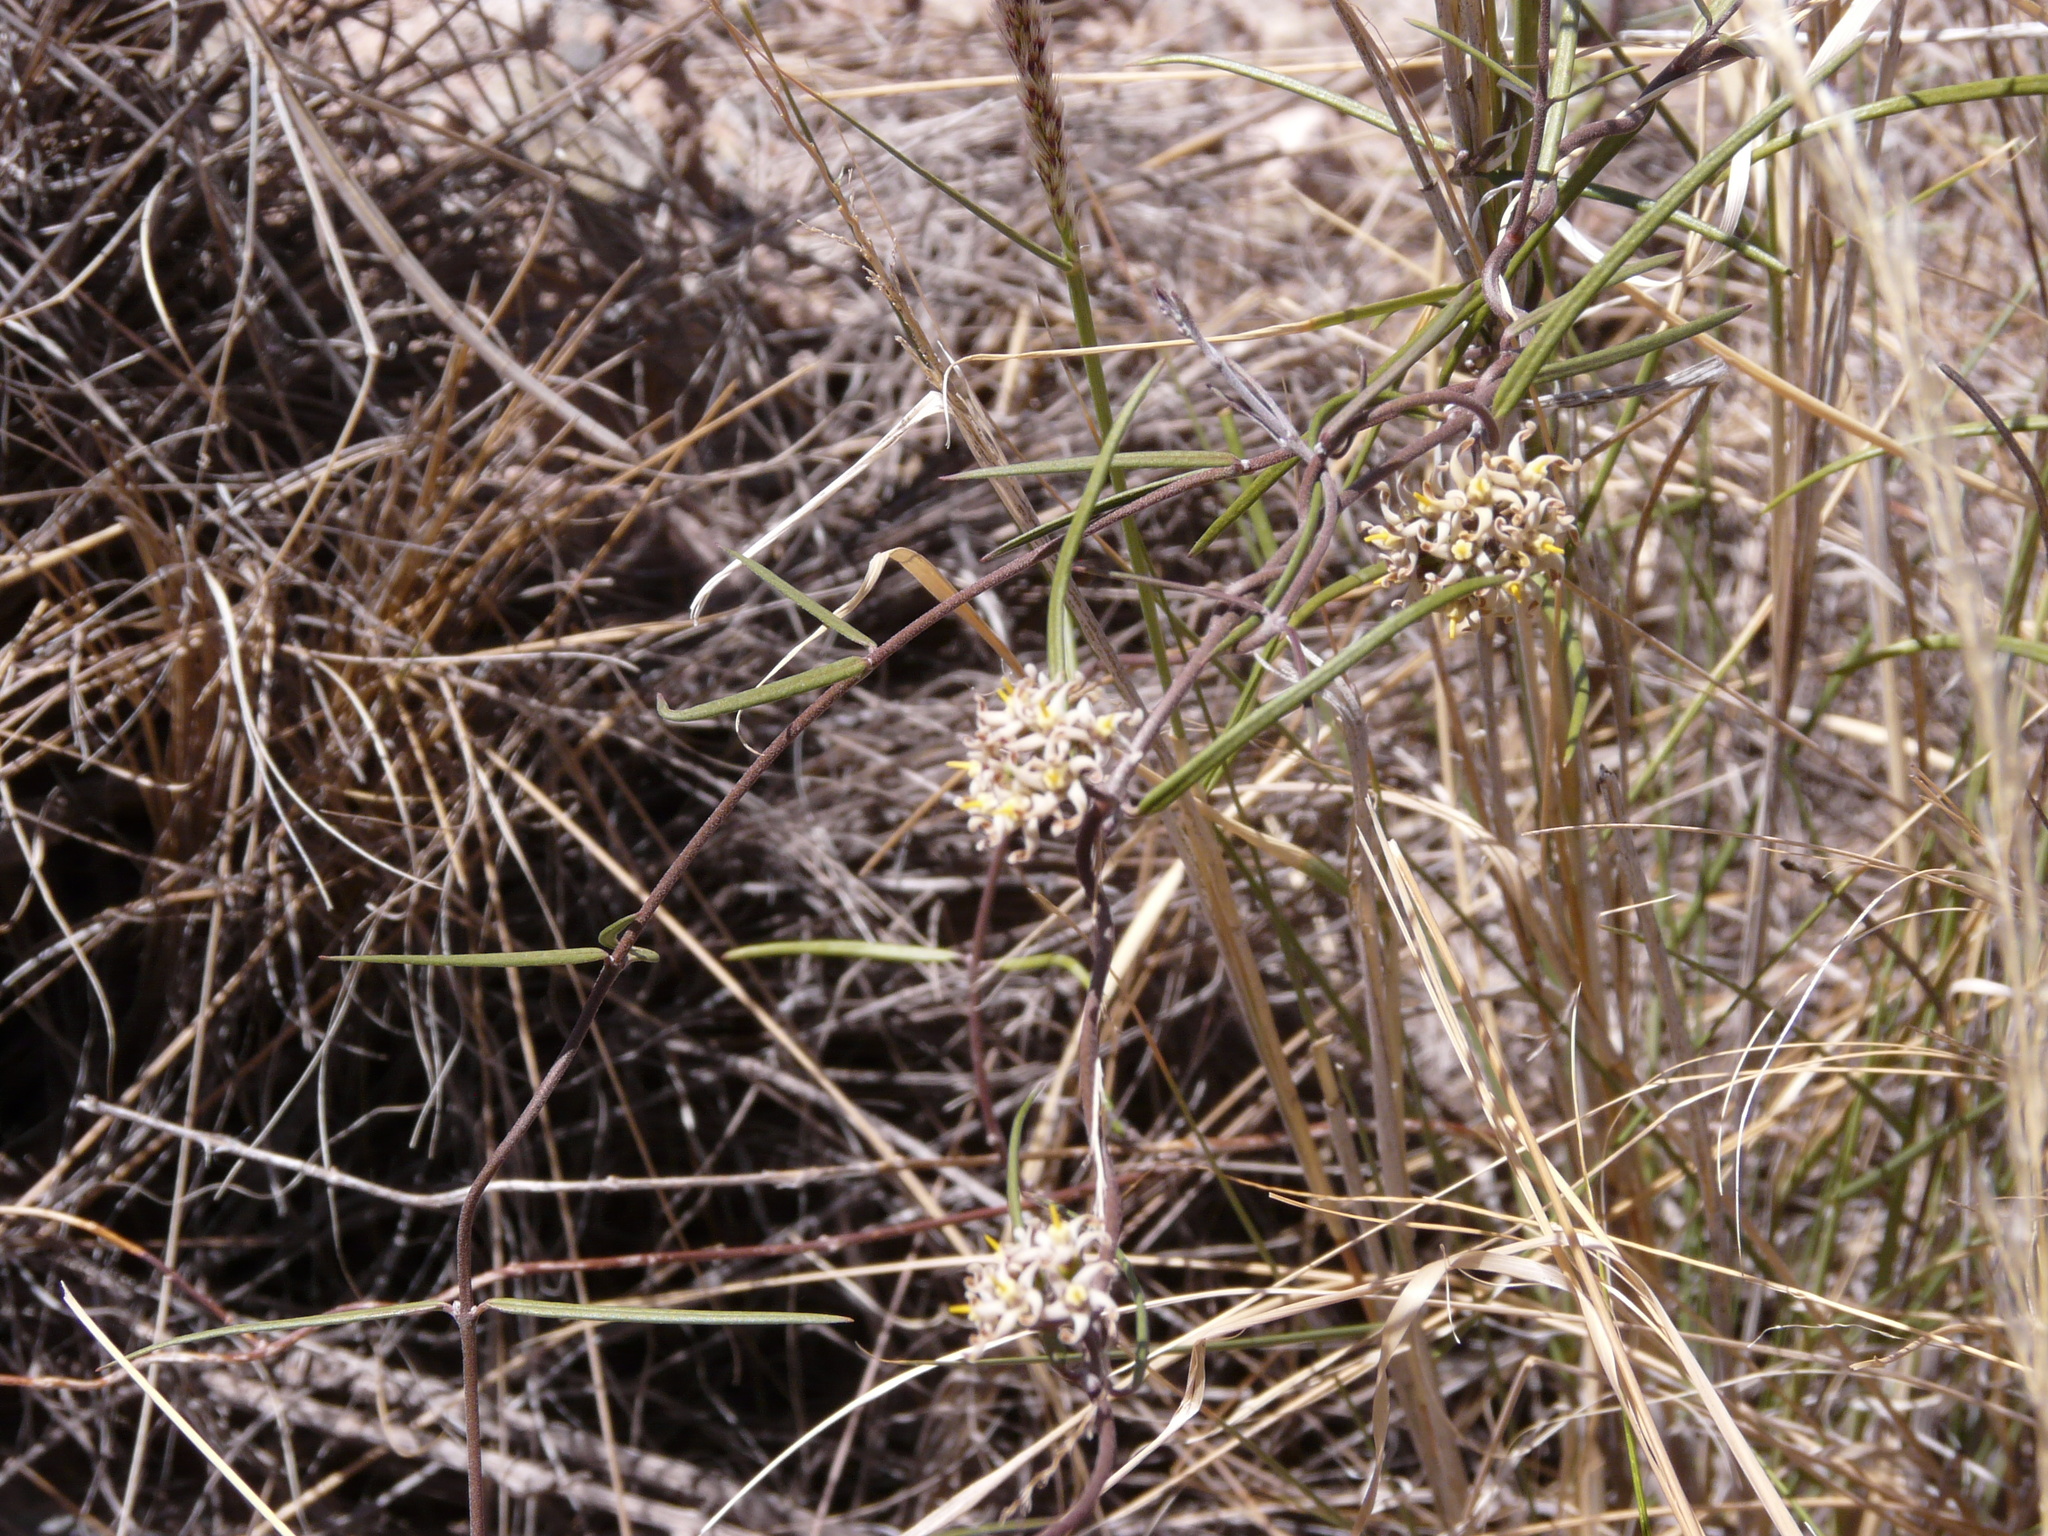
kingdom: Plantae
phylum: Tracheophyta
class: Magnoliopsida
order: Gentianales
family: Apocynaceae
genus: Tweedia
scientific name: Tweedia brunonis
